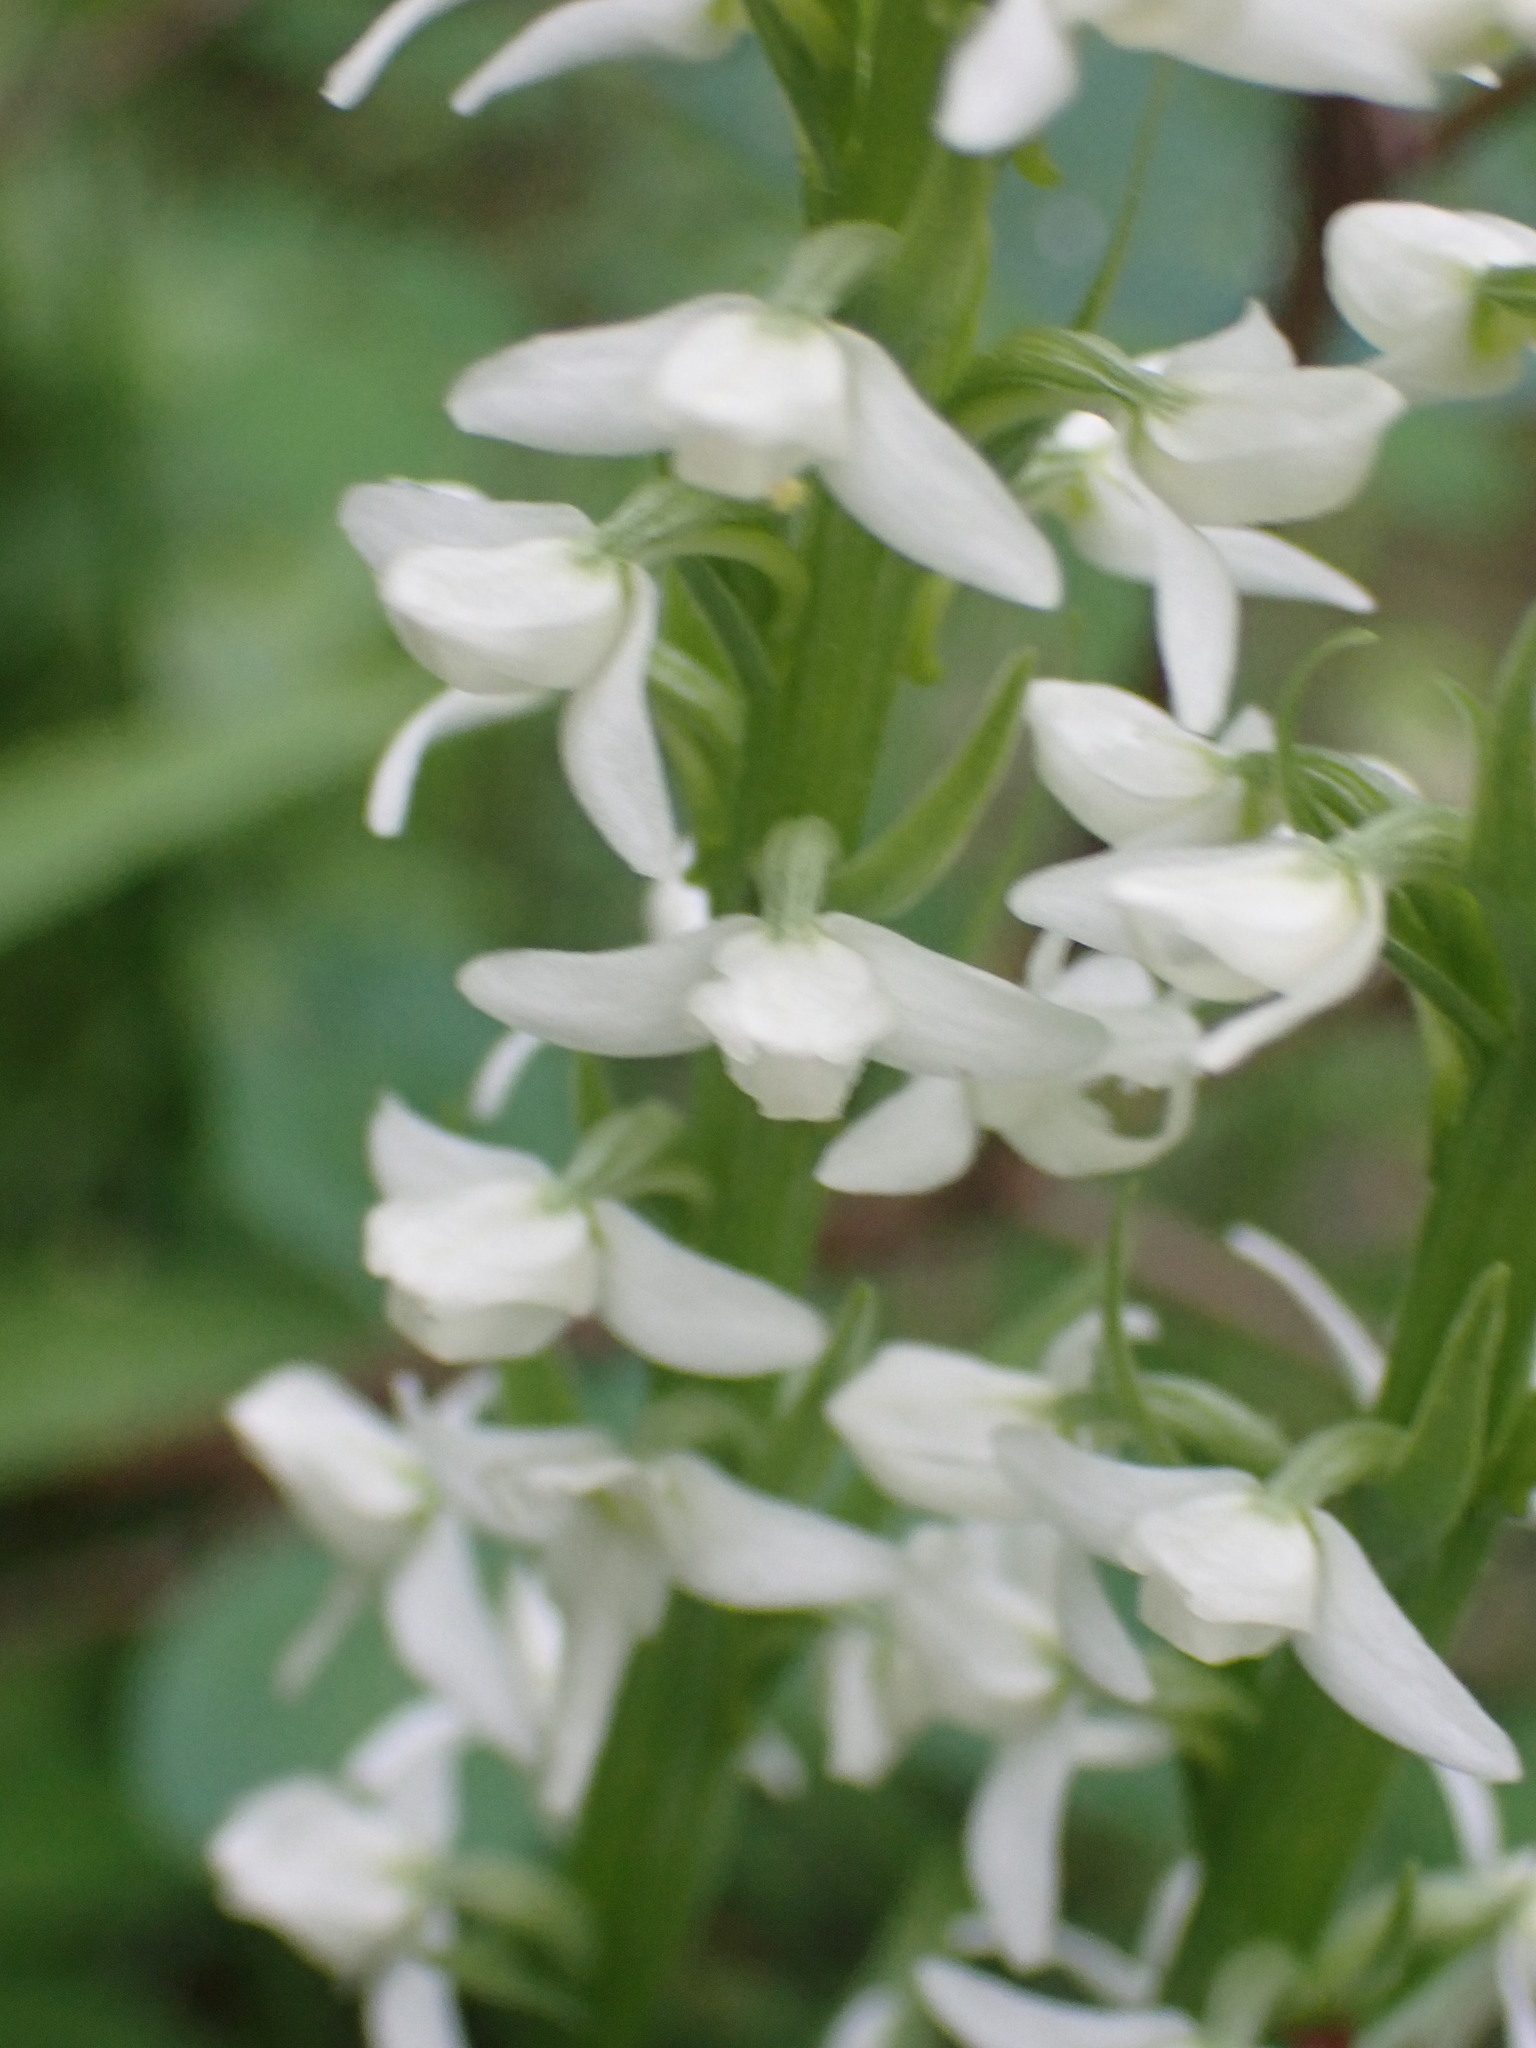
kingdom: Plantae
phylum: Tracheophyta
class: Liliopsida
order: Asparagales
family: Orchidaceae
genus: Platanthera
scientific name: Platanthera dilatata
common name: Bog candles
